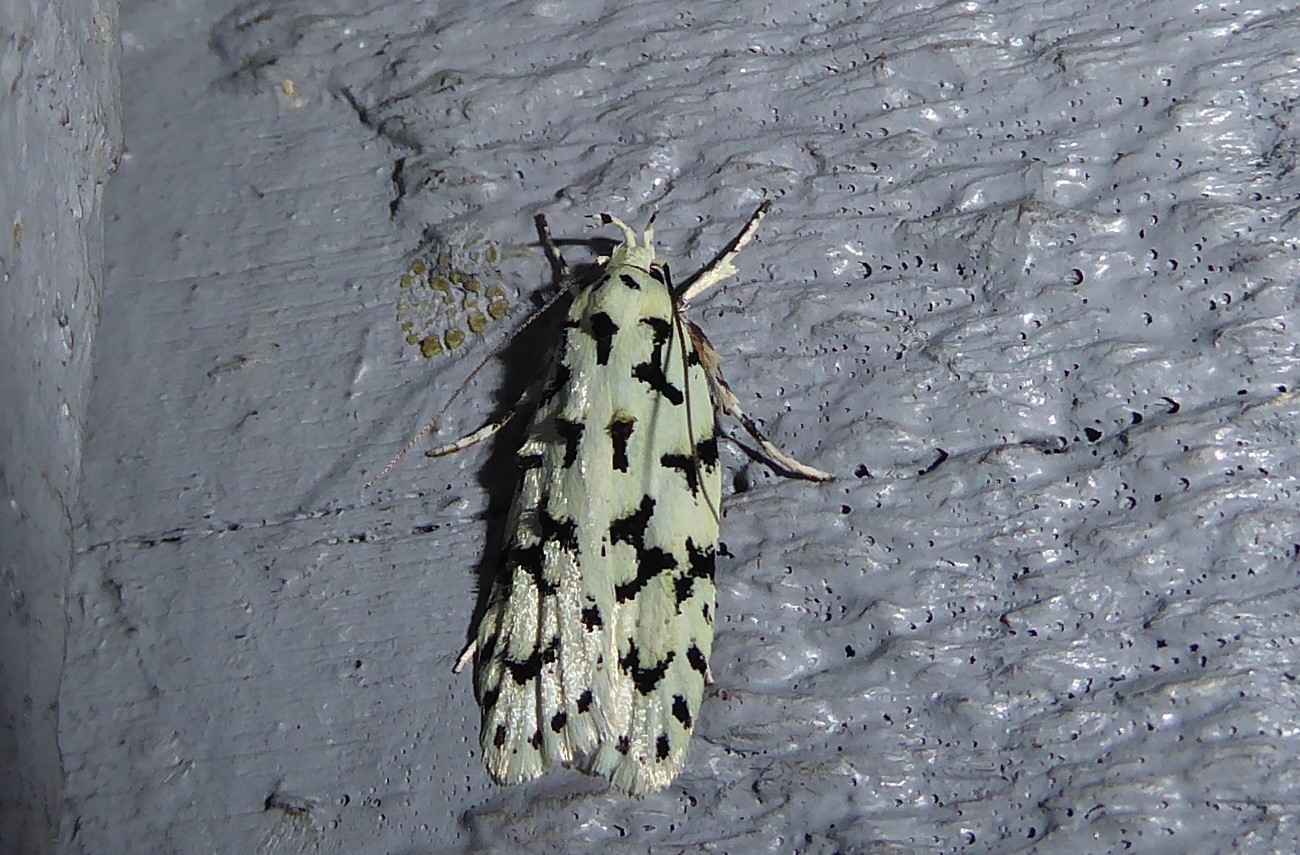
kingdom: Animalia
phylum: Arthropoda
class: Insecta
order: Lepidoptera
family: Oecophoridae
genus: Izatha
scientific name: Izatha huttoni
